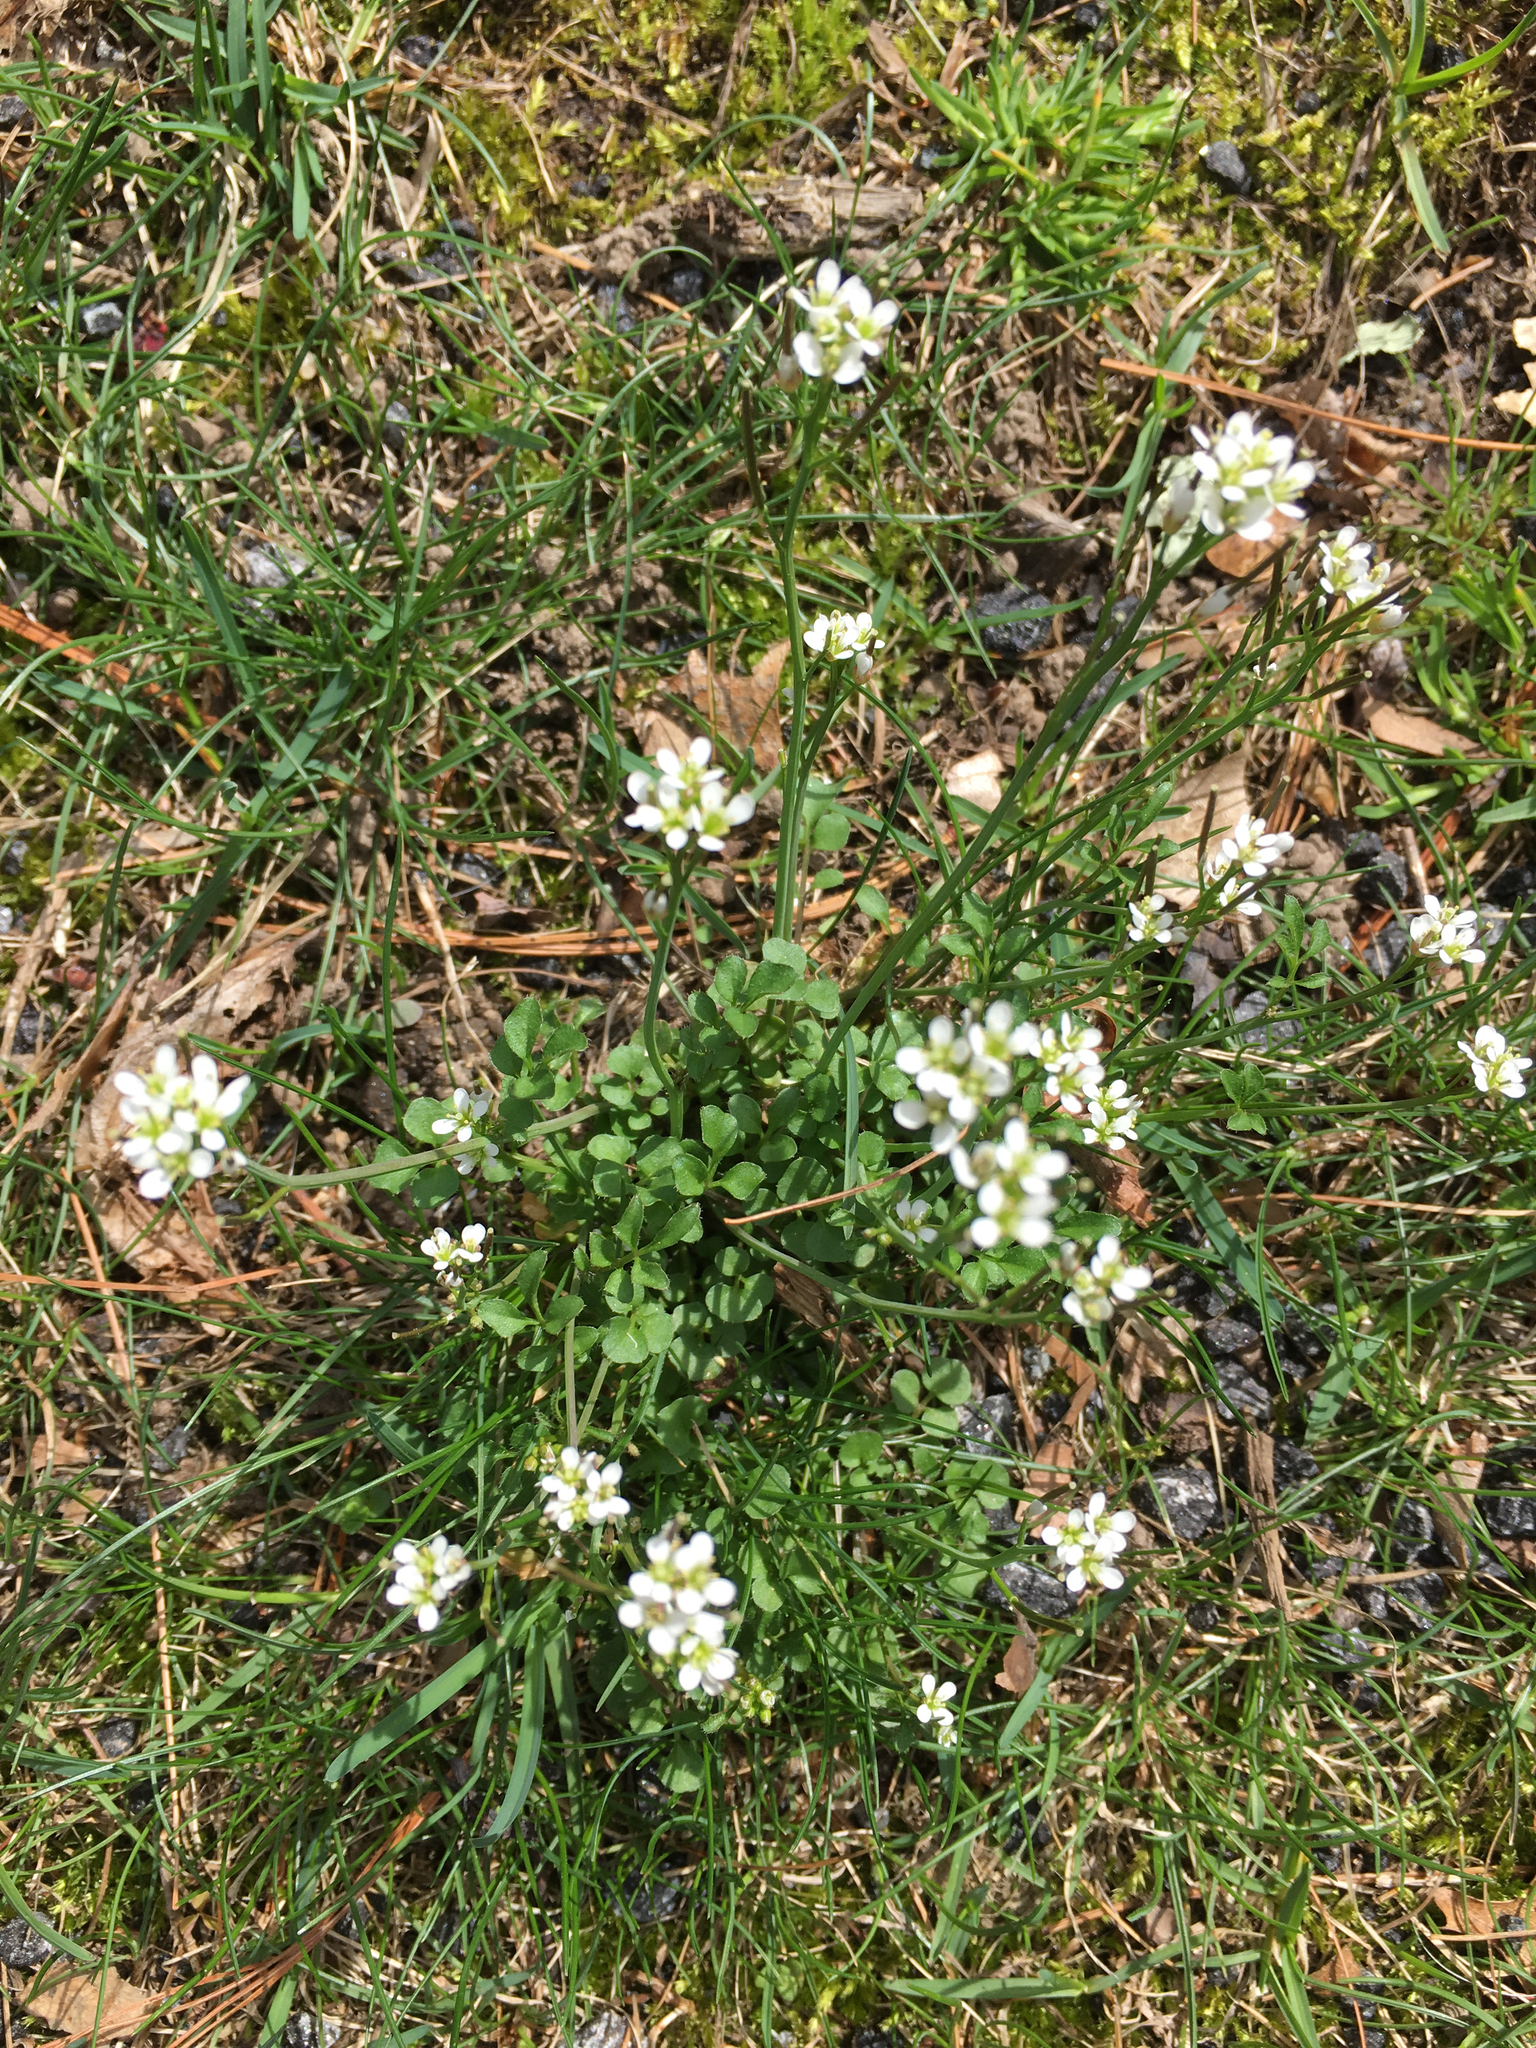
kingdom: Plantae
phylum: Tracheophyta
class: Magnoliopsida
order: Brassicales
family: Brassicaceae
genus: Cardamine
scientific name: Cardamine hirsuta
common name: Hairy bittercress
